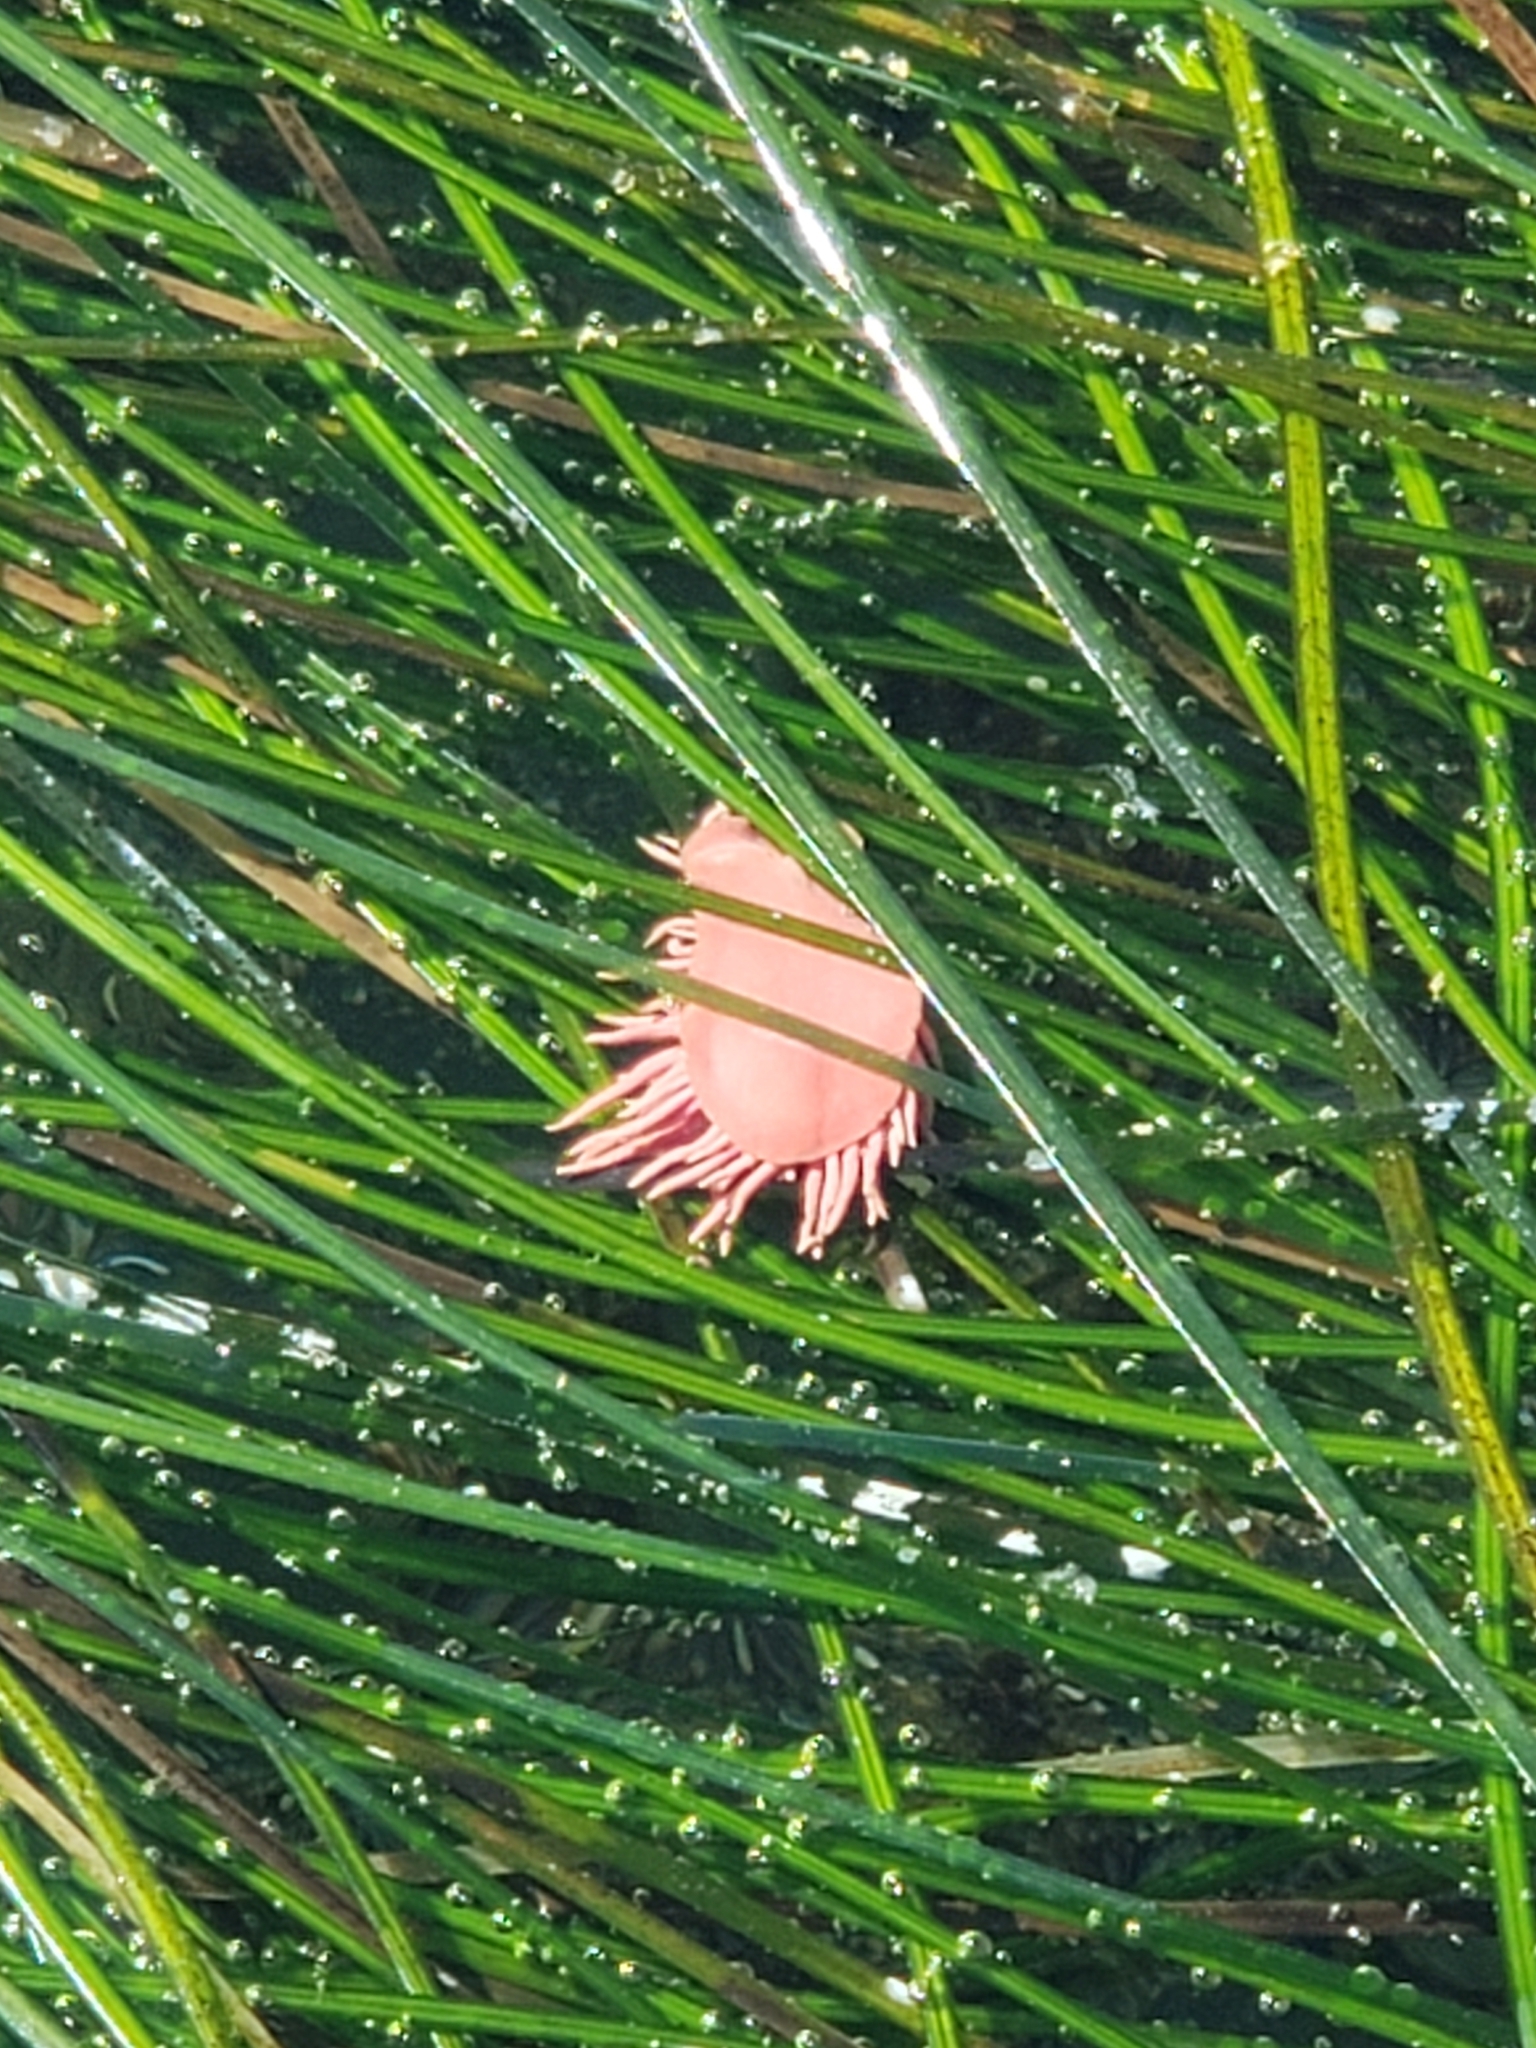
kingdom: Animalia
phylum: Mollusca
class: Gastropoda
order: Nudibranchia
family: Goniodorididae
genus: Okenia
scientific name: Okenia
